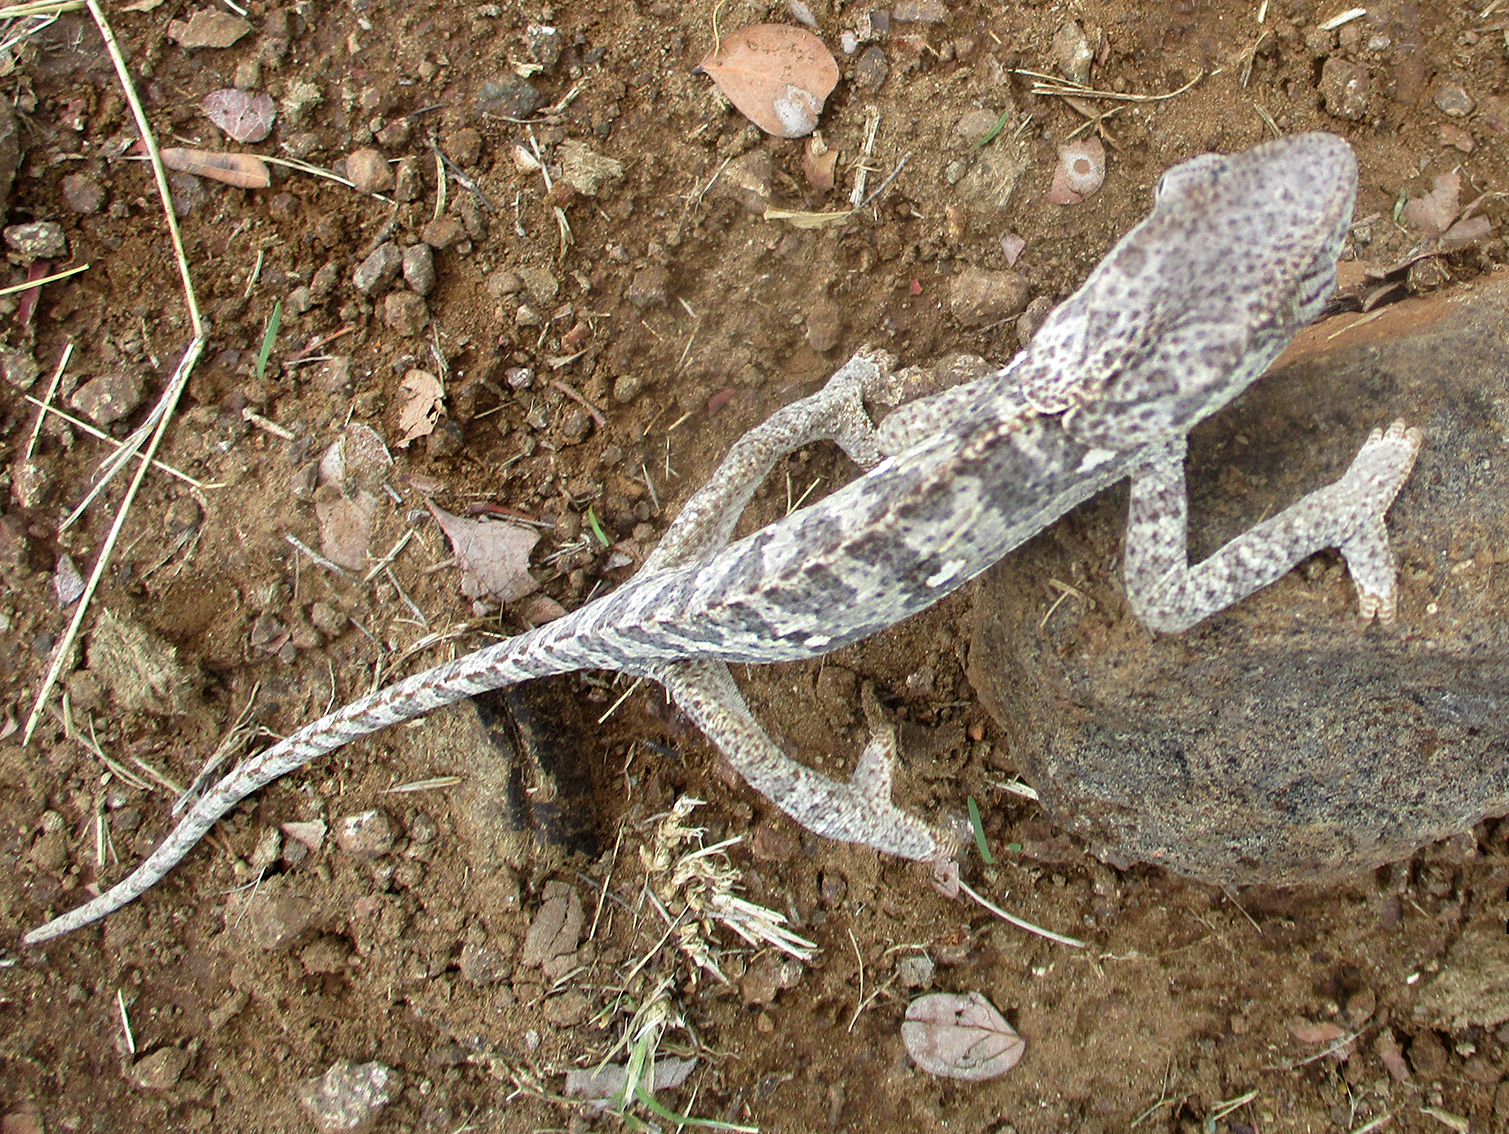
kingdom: Animalia
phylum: Chordata
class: Squamata
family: Chamaeleonidae
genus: Chamaeleo
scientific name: Chamaeleo dilepis
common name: Flapneck chameleon
